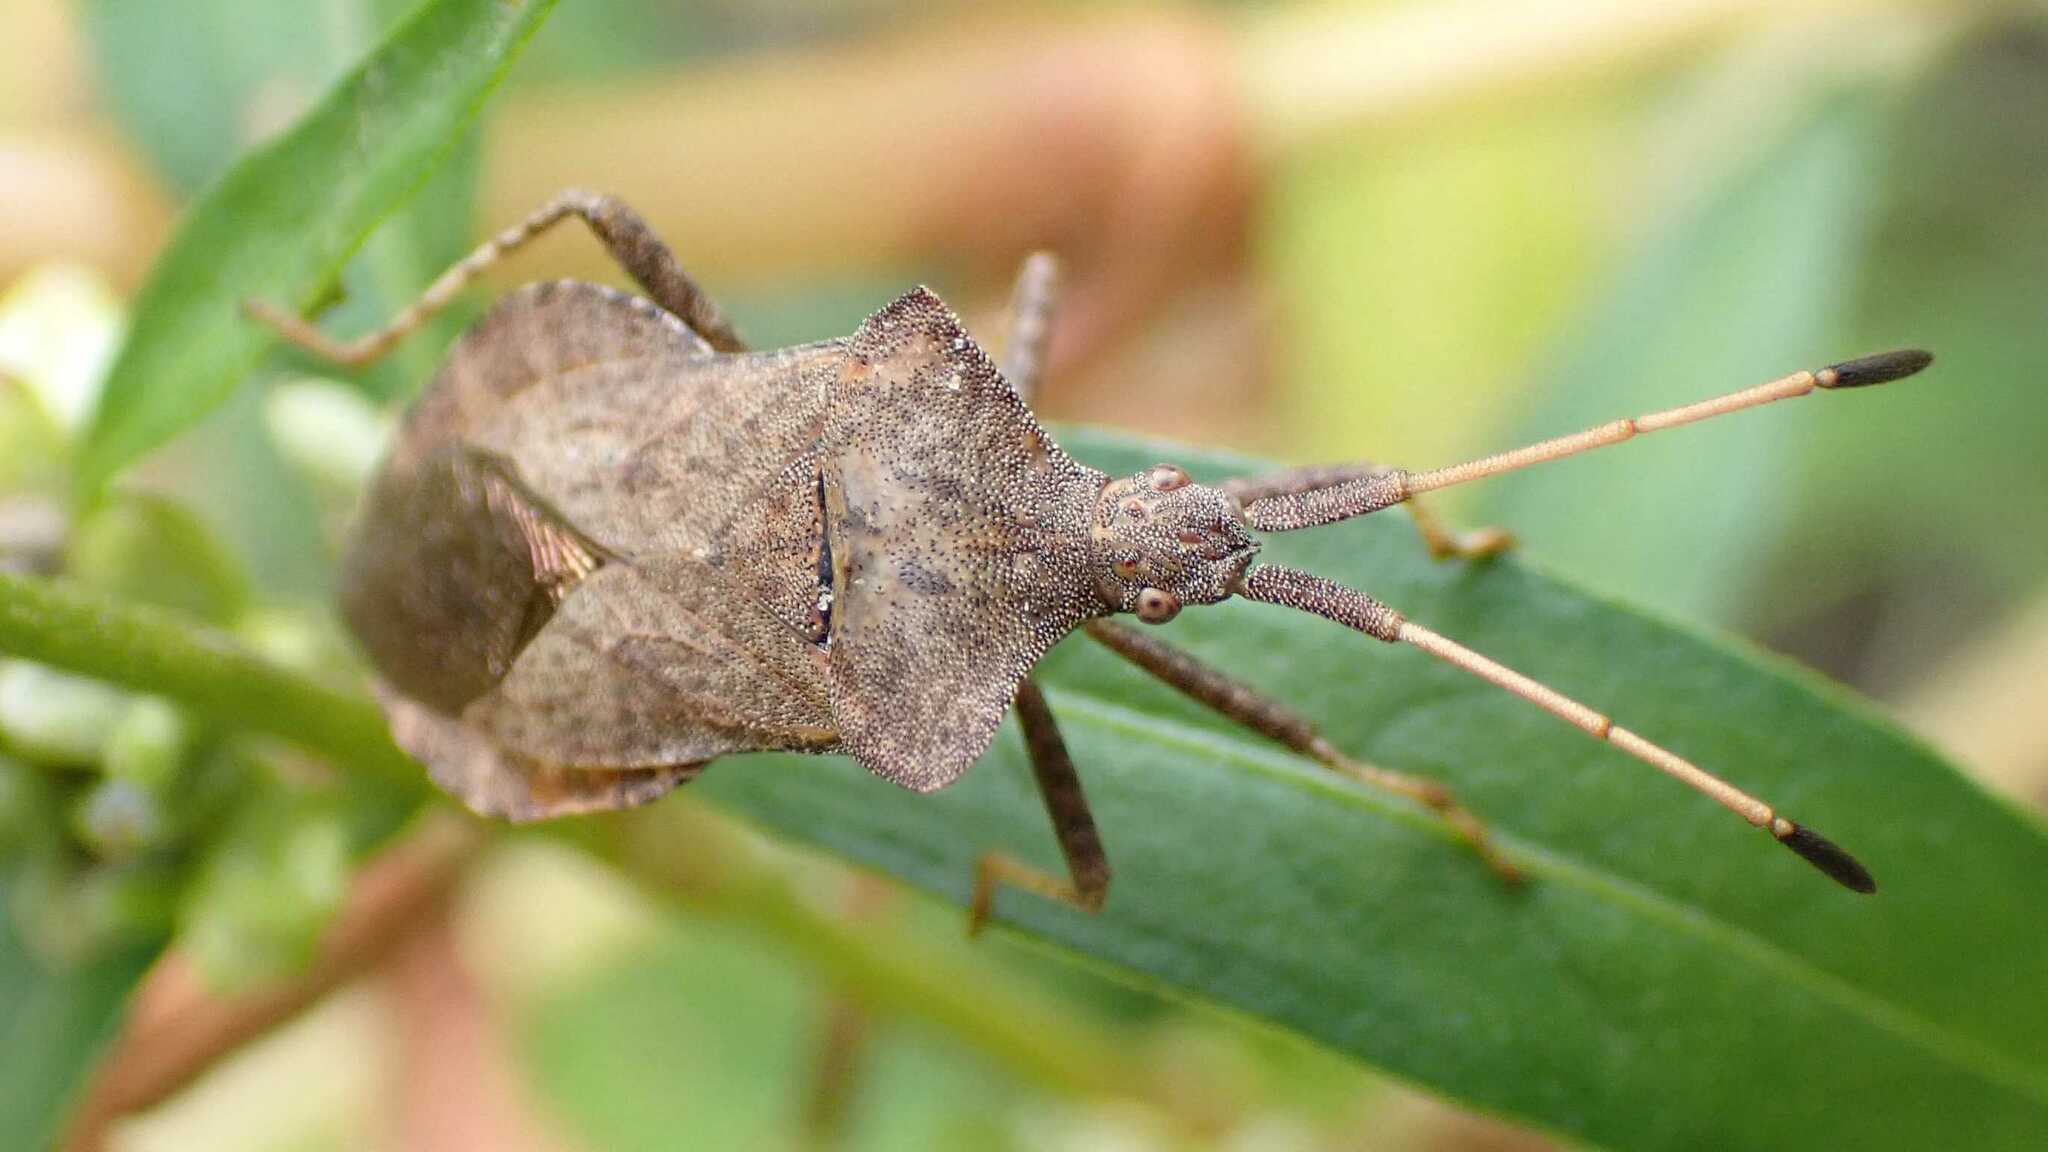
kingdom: Animalia
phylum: Arthropoda
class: Insecta
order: Hemiptera
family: Coreidae
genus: Coreus
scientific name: Coreus marginatus
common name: Dock bug
